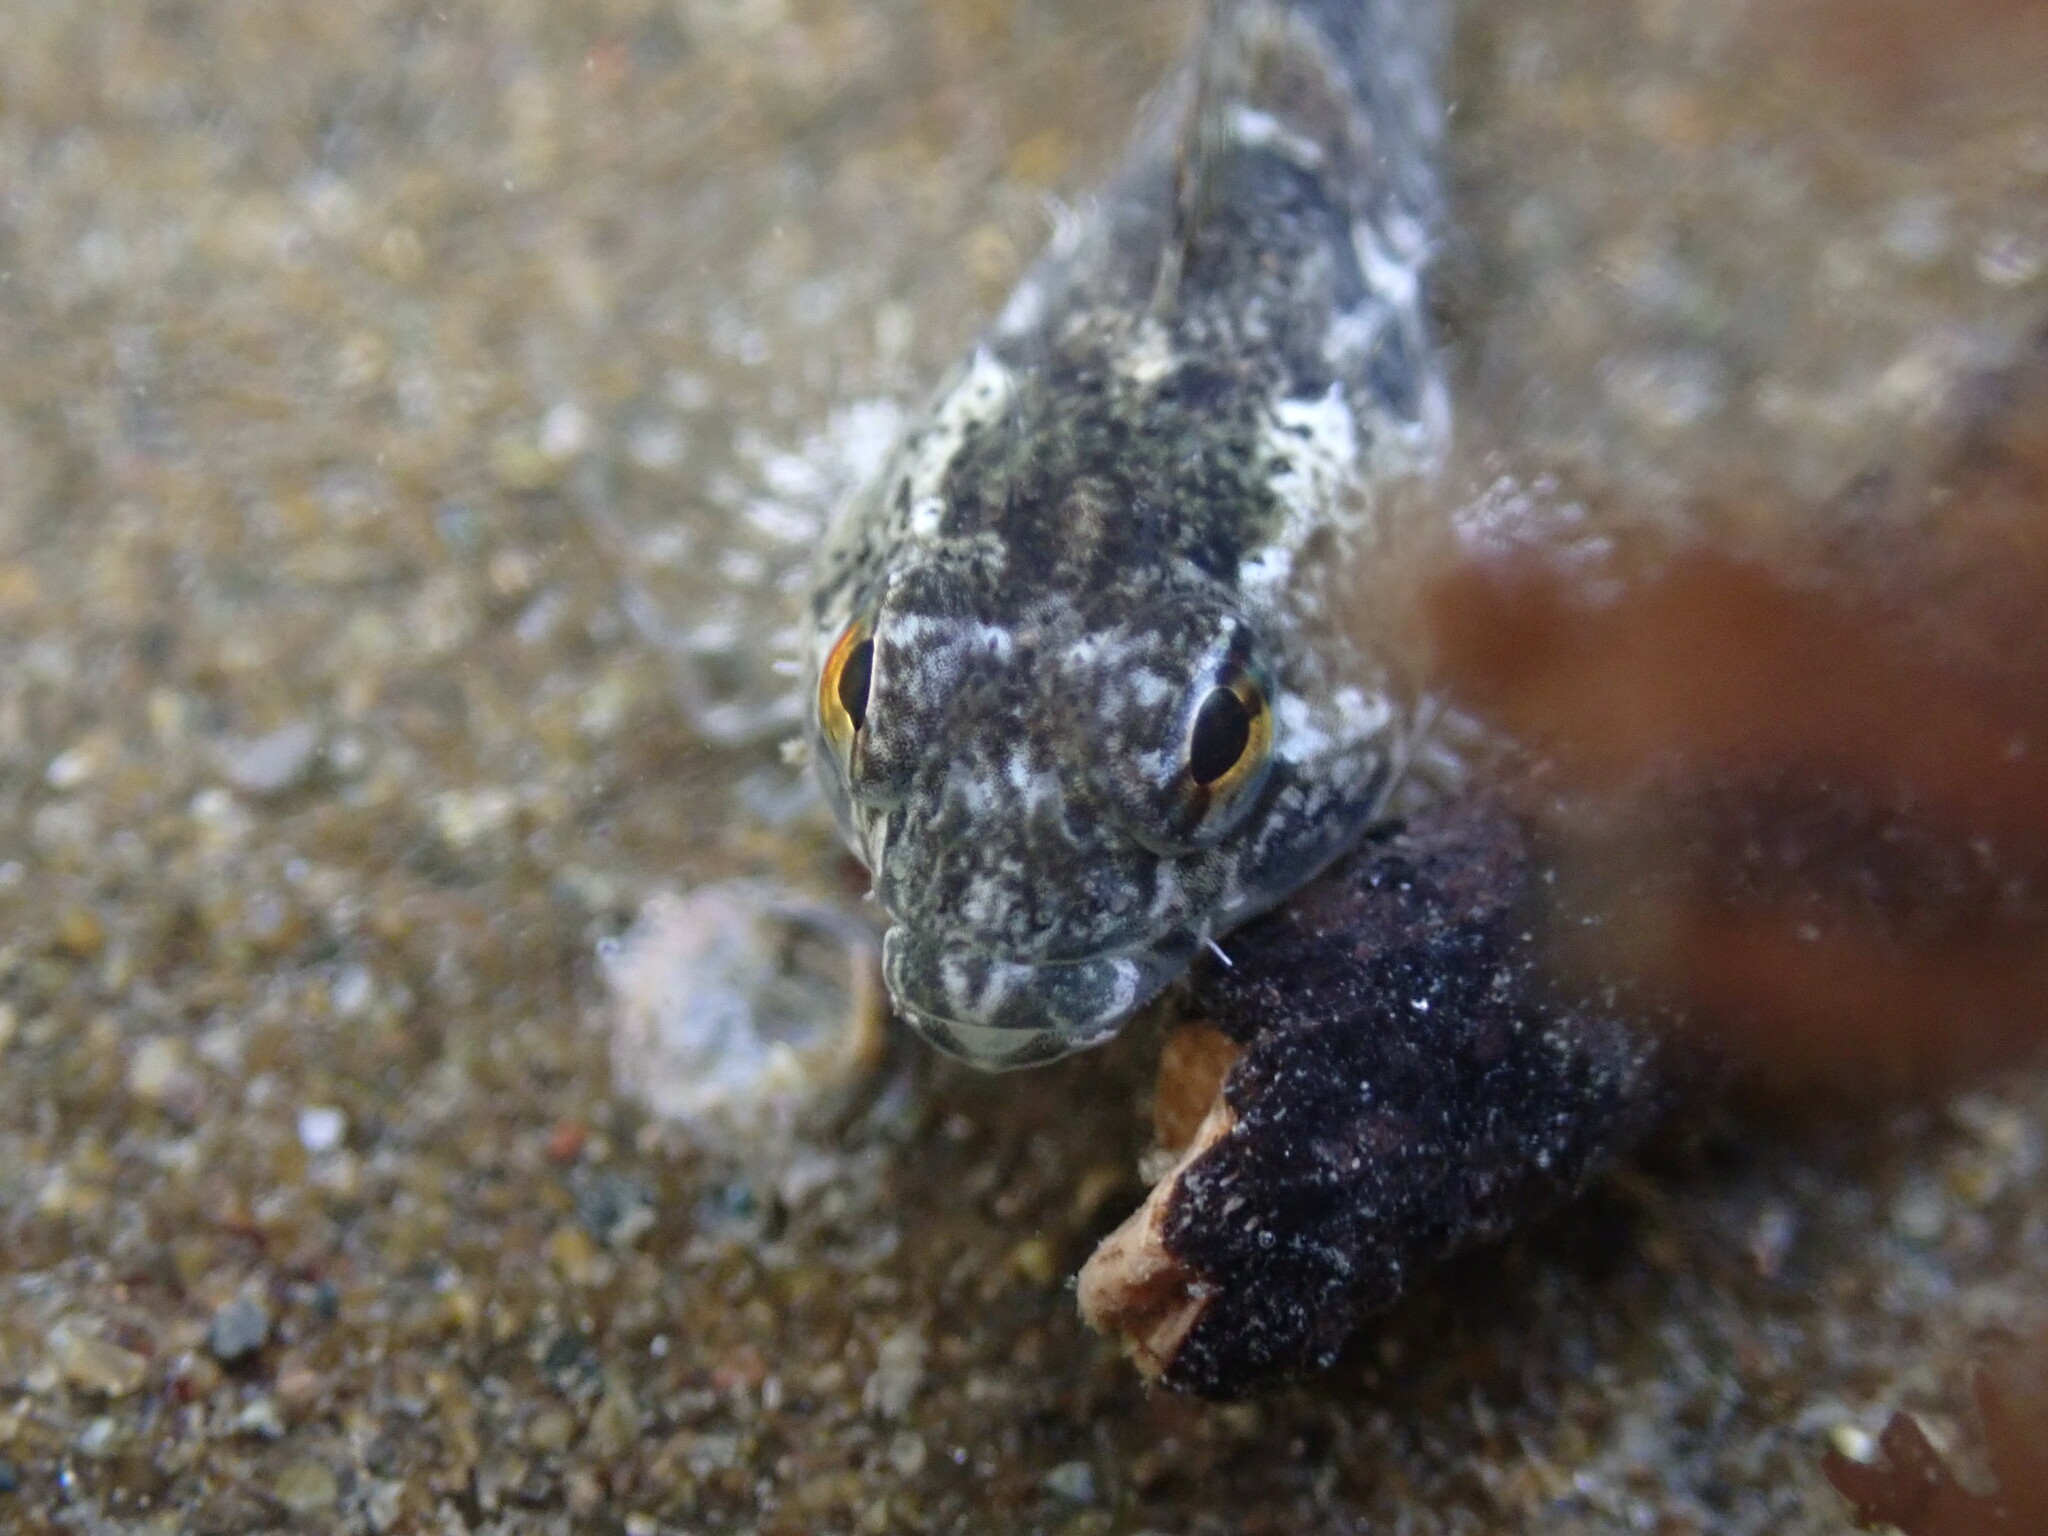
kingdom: Animalia
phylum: Chordata
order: Scorpaeniformes
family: Cottidae
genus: Oligocottus
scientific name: Oligocottus maculosus
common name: Tidepool sculpin
